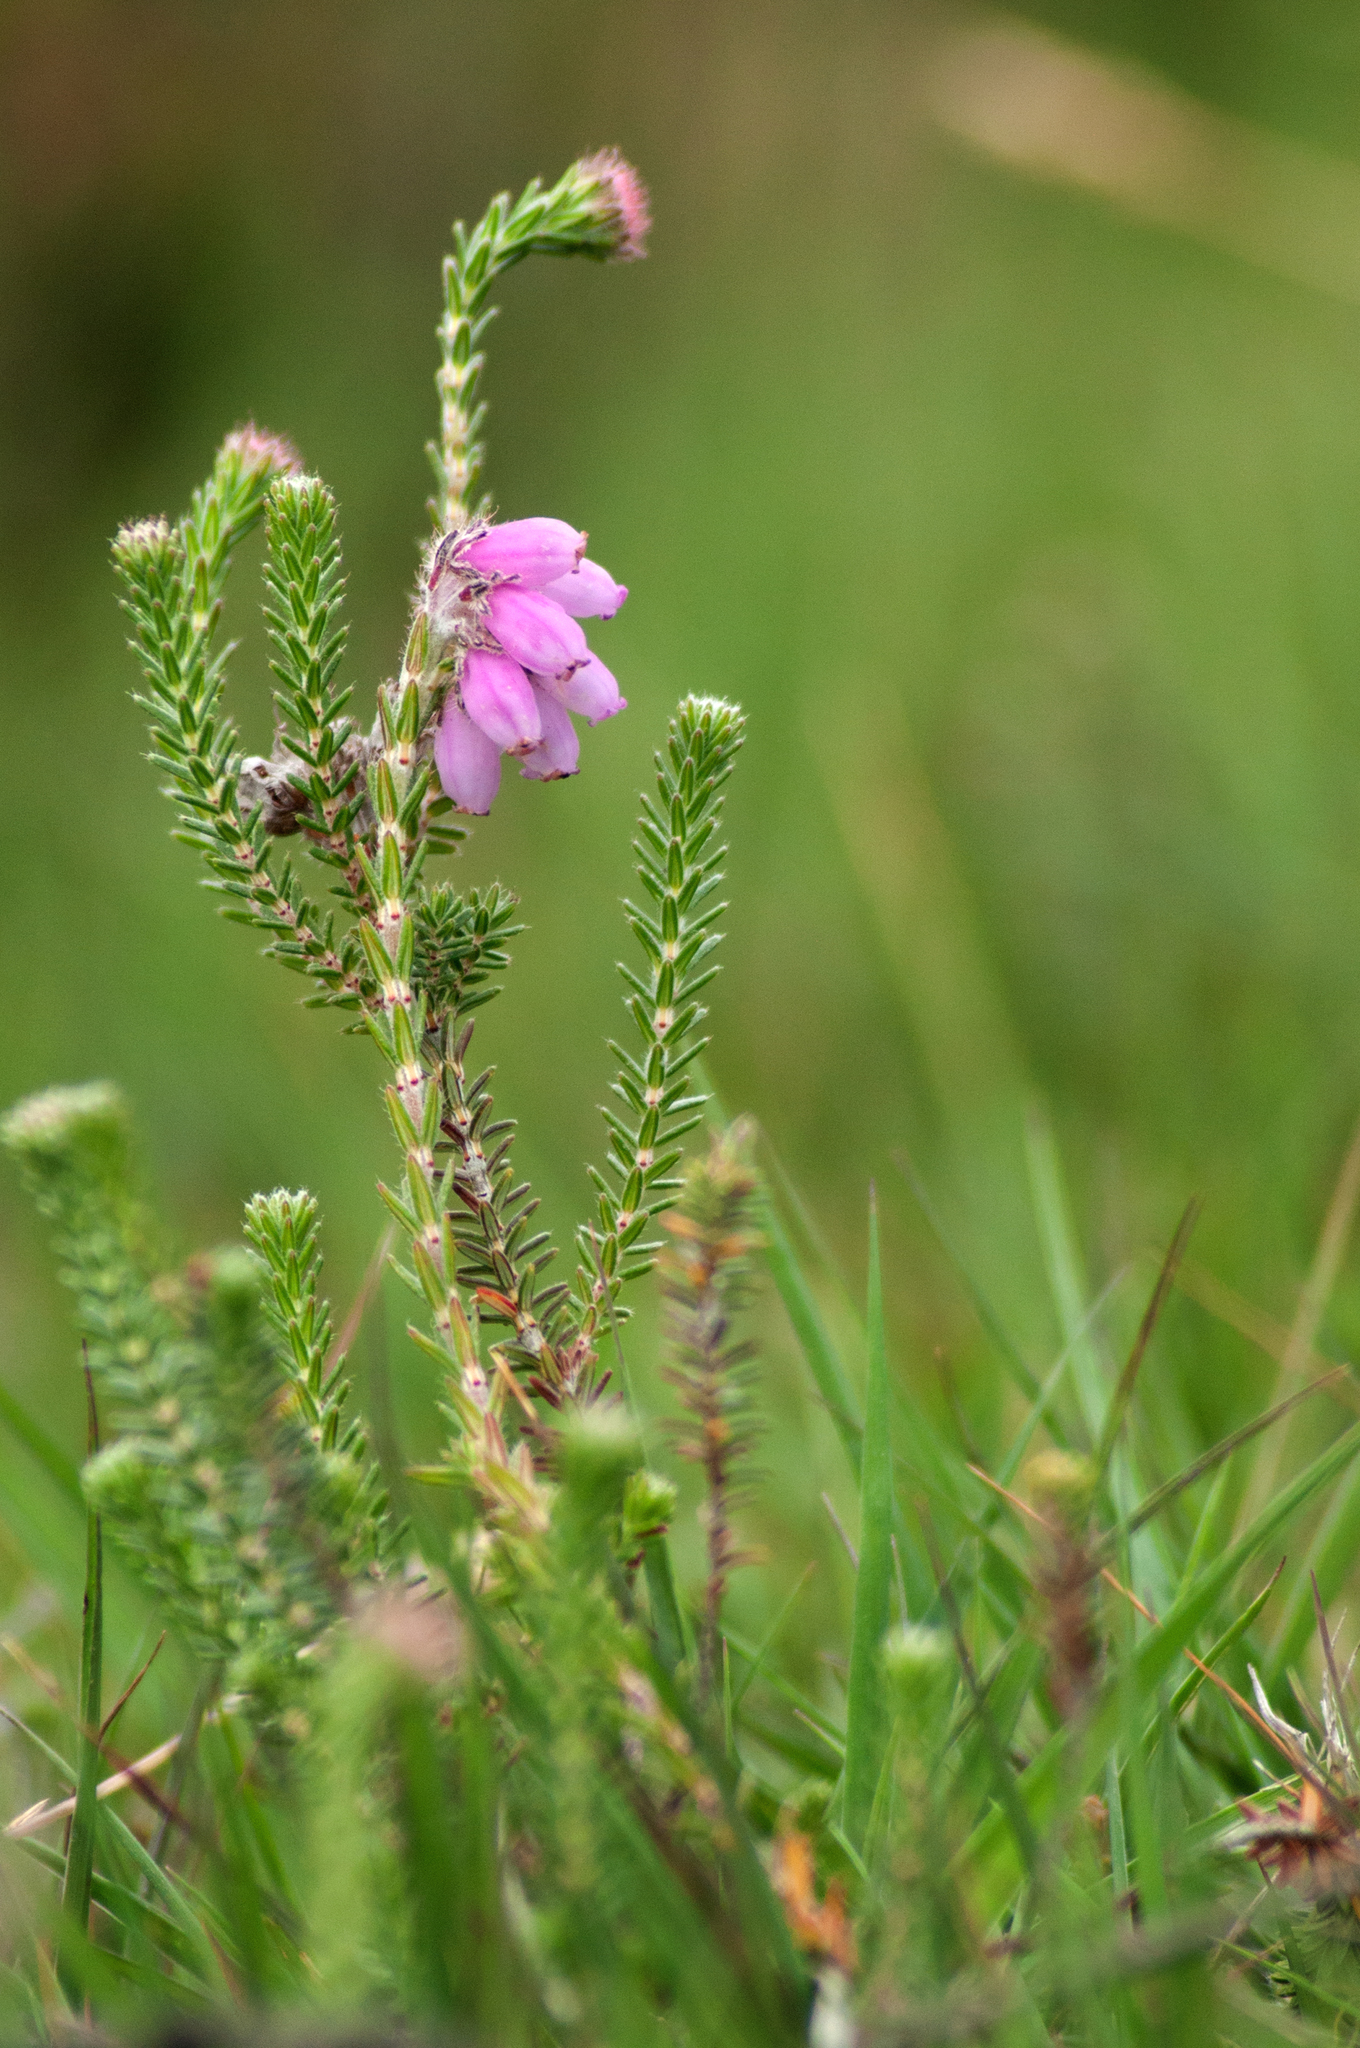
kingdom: Plantae
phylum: Tracheophyta
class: Magnoliopsida
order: Ericales
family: Ericaceae
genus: Erica
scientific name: Erica tetralix
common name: Cross-leaved heath
